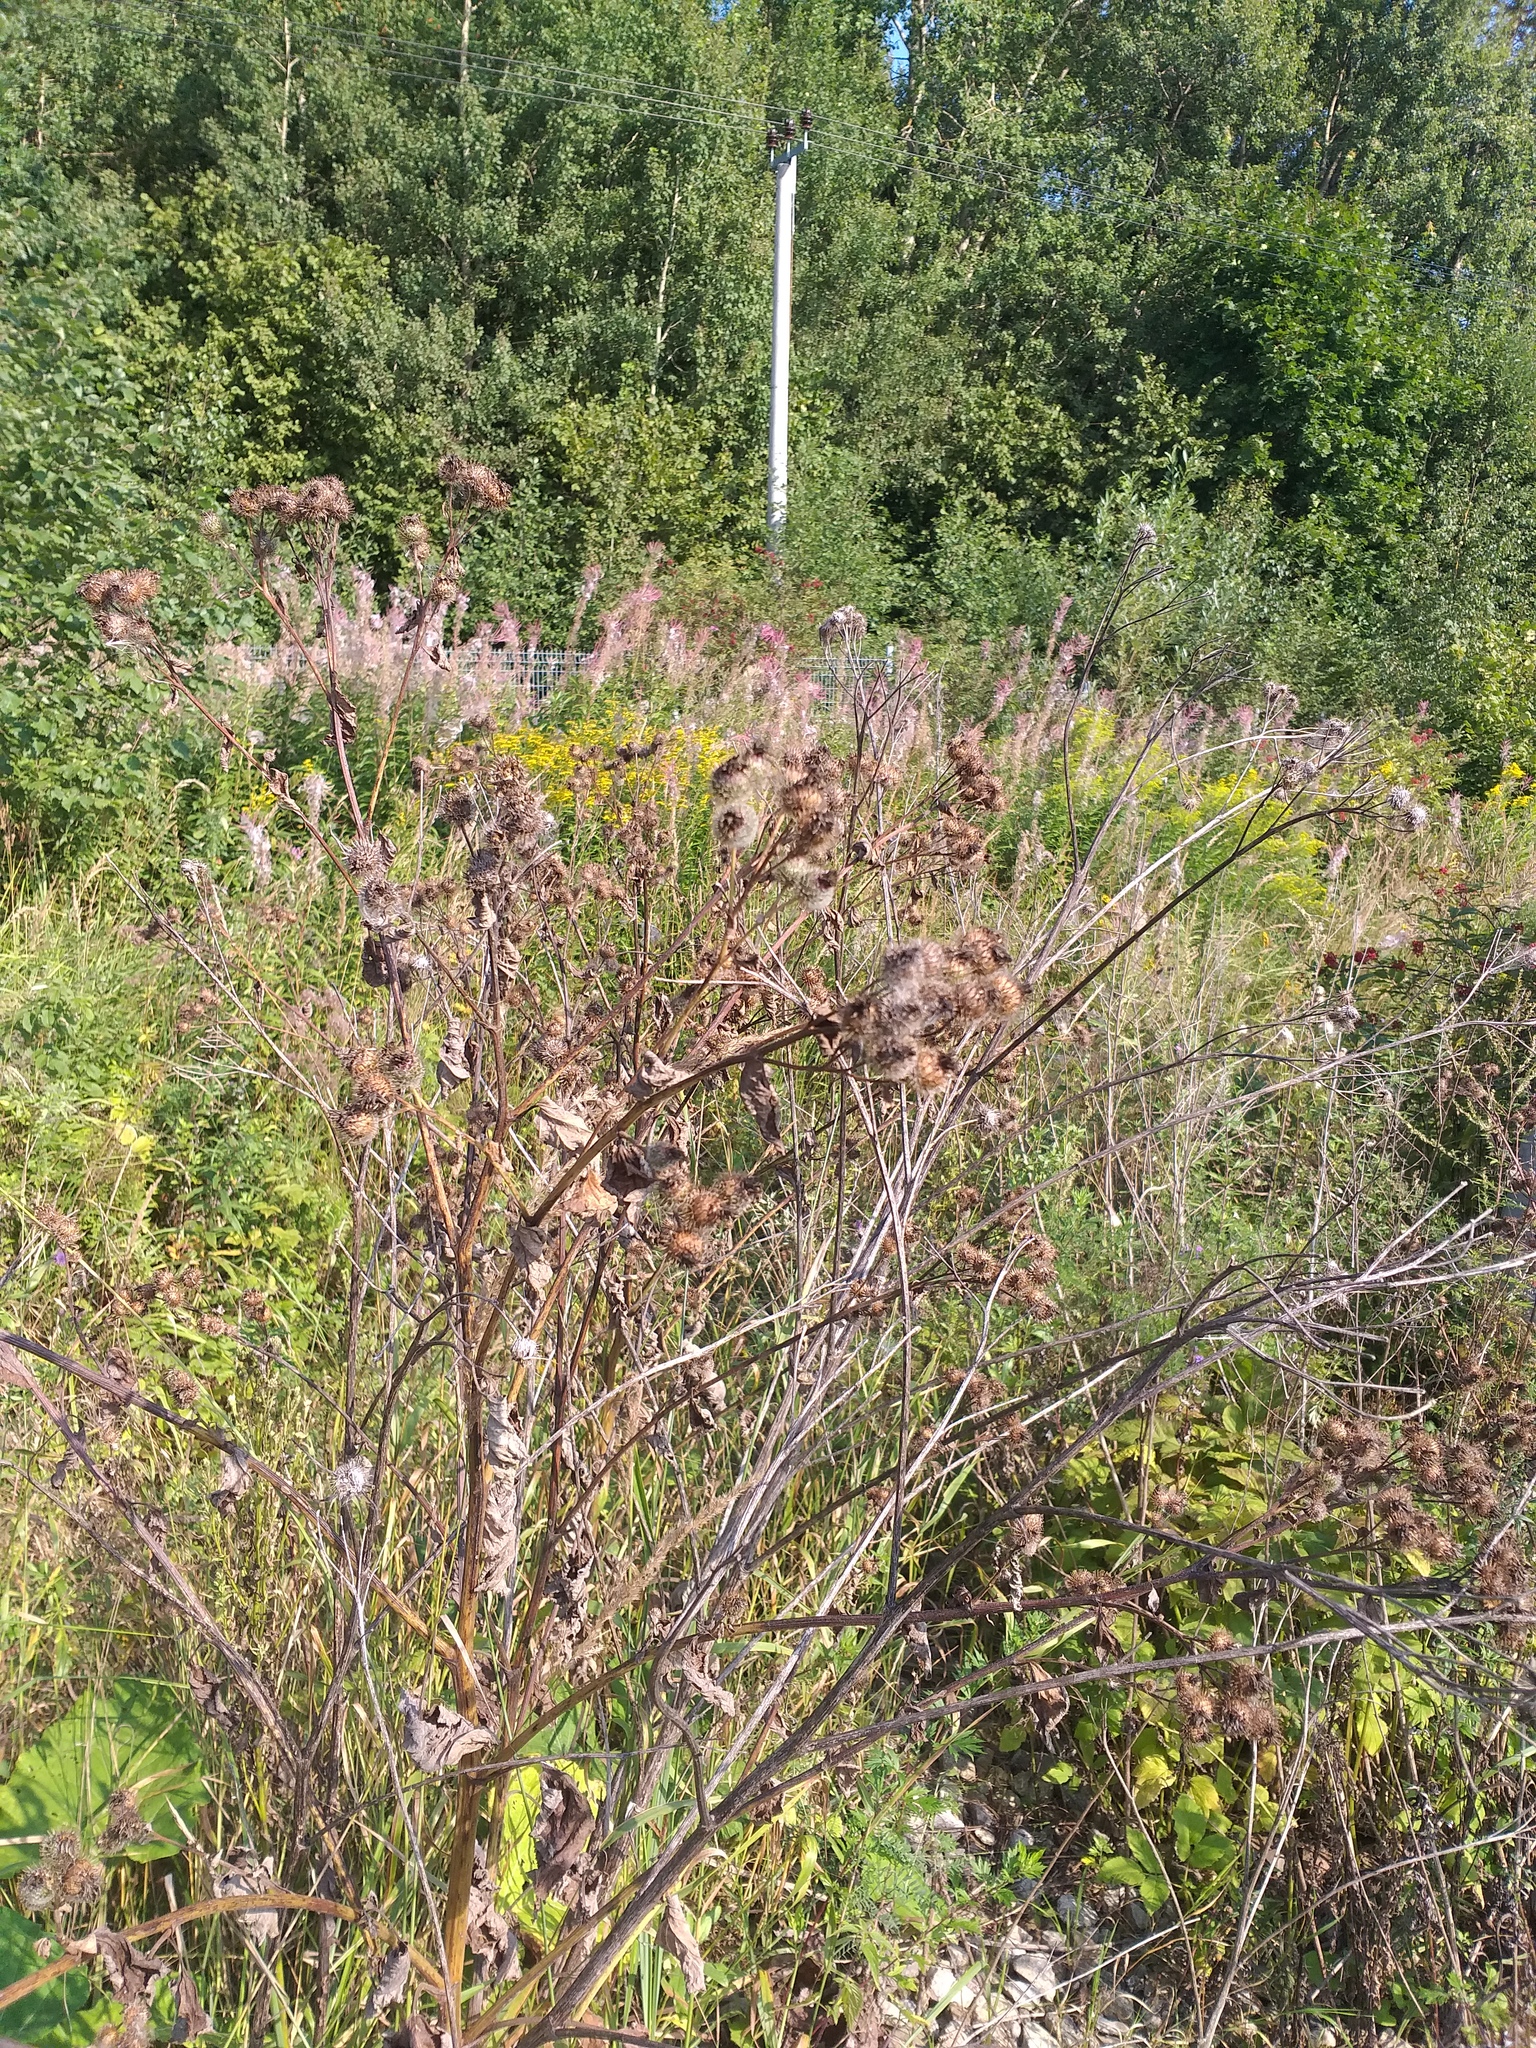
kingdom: Plantae
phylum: Tracheophyta
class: Magnoliopsida
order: Asterales
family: Asteraceae
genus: Arctium
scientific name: Arctium tomentosum
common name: Woolly burdock
